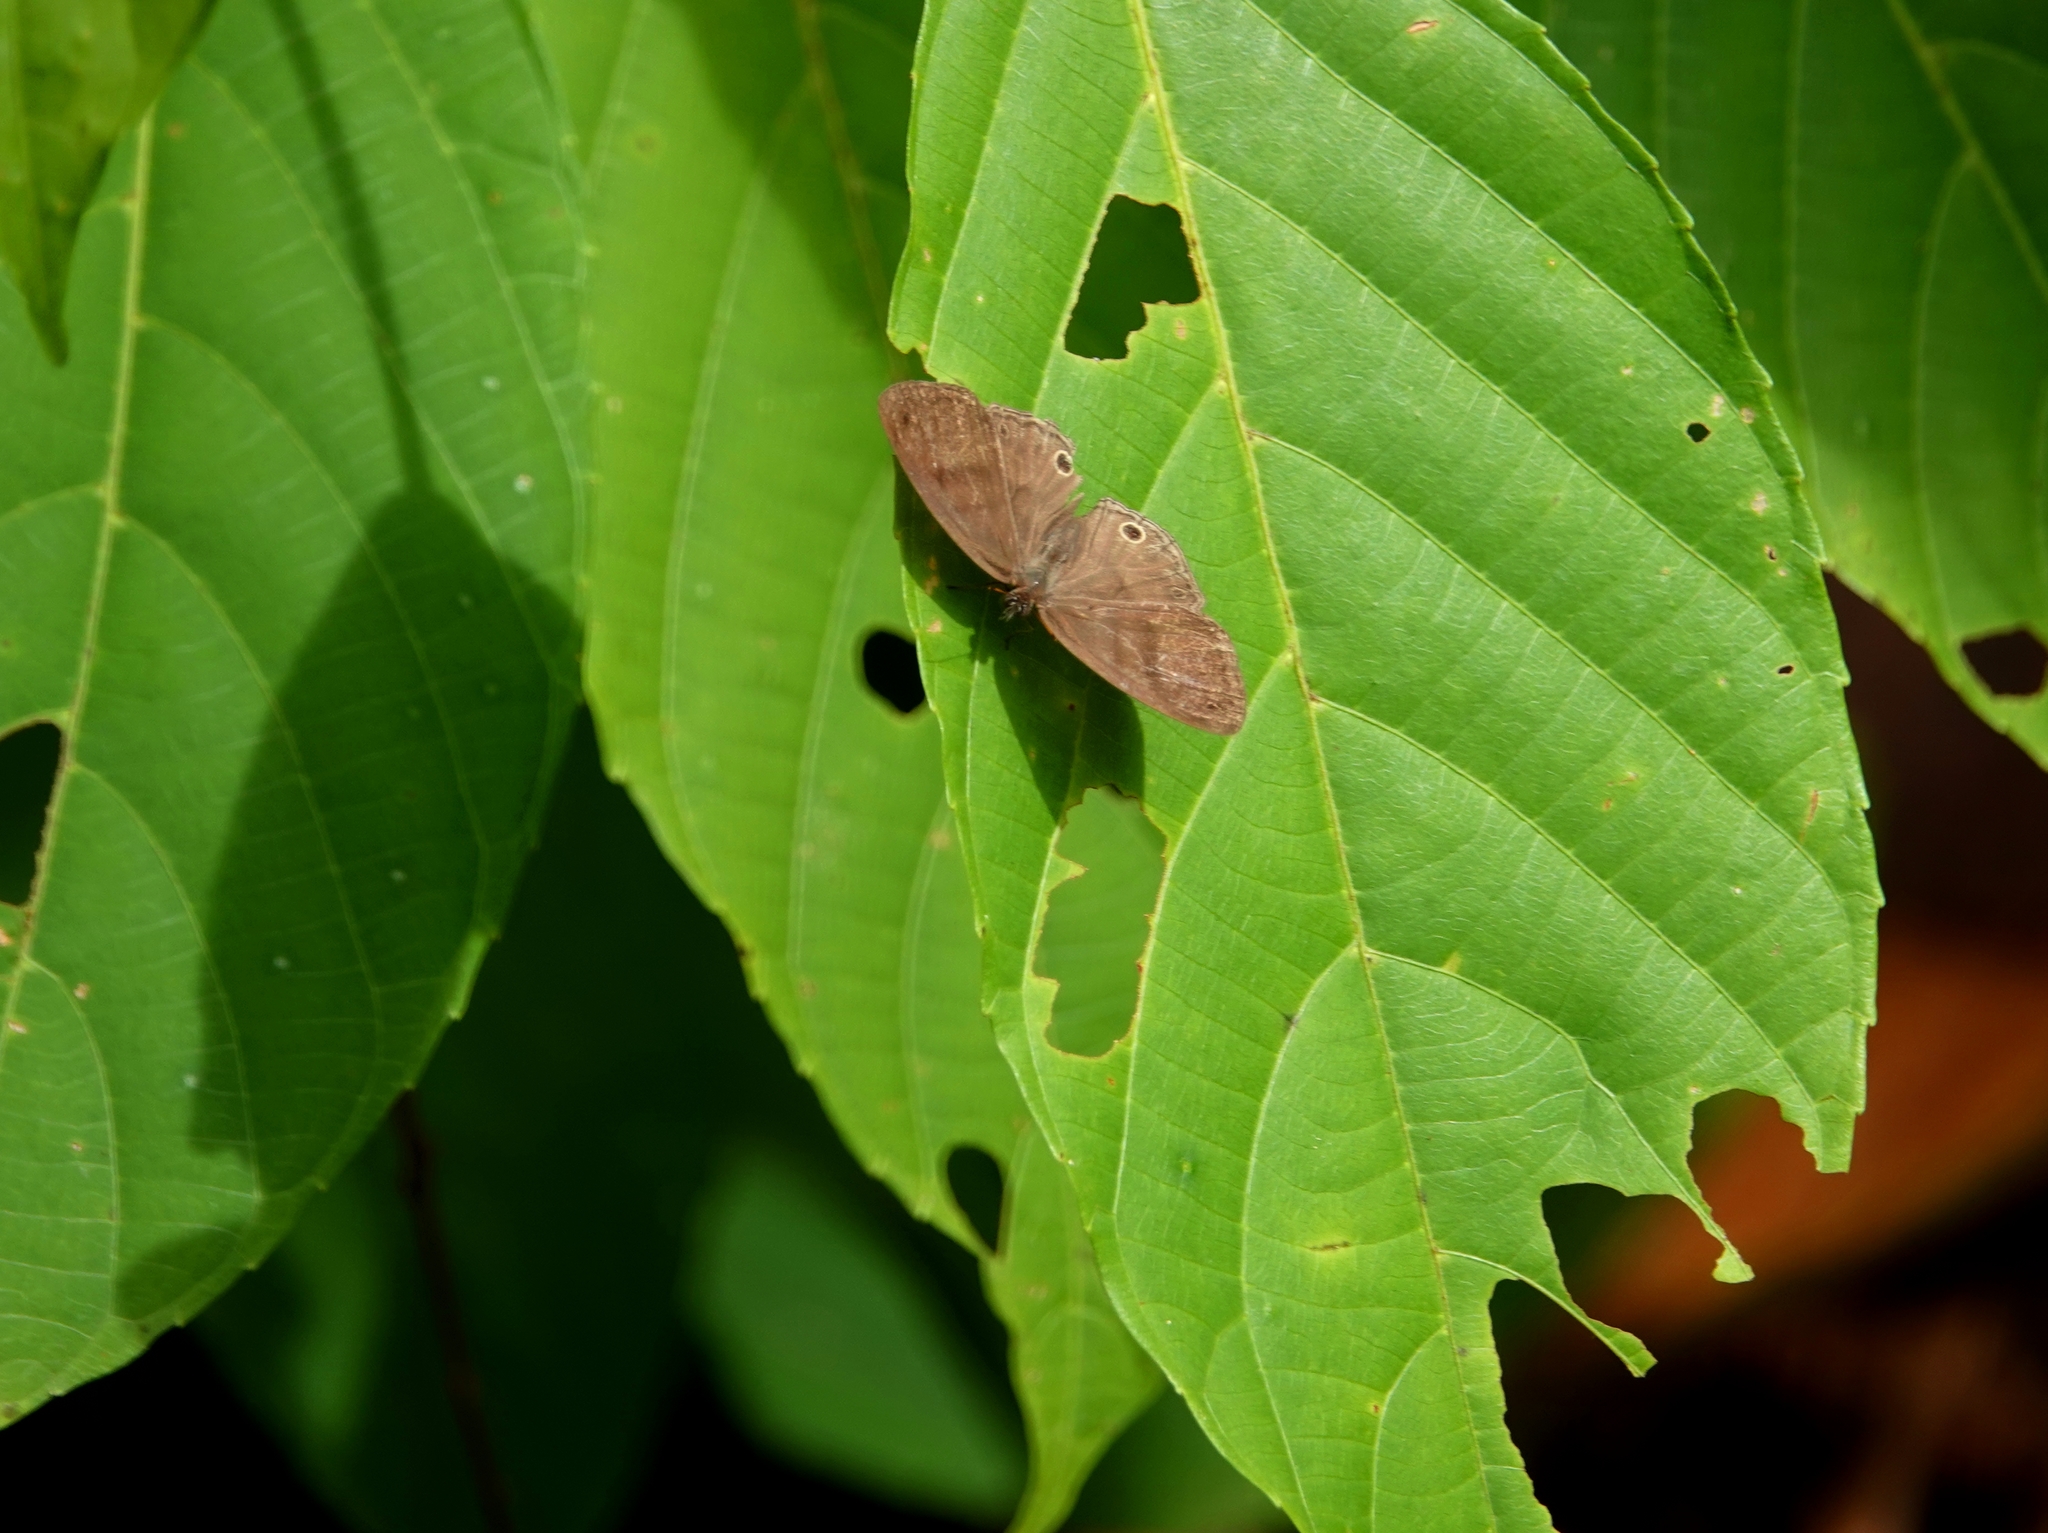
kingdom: Animalia
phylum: Arthropoda
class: Insecta
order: Lepidoptera
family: Nymphalidae
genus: Euptychiina
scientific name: Euptychiina
